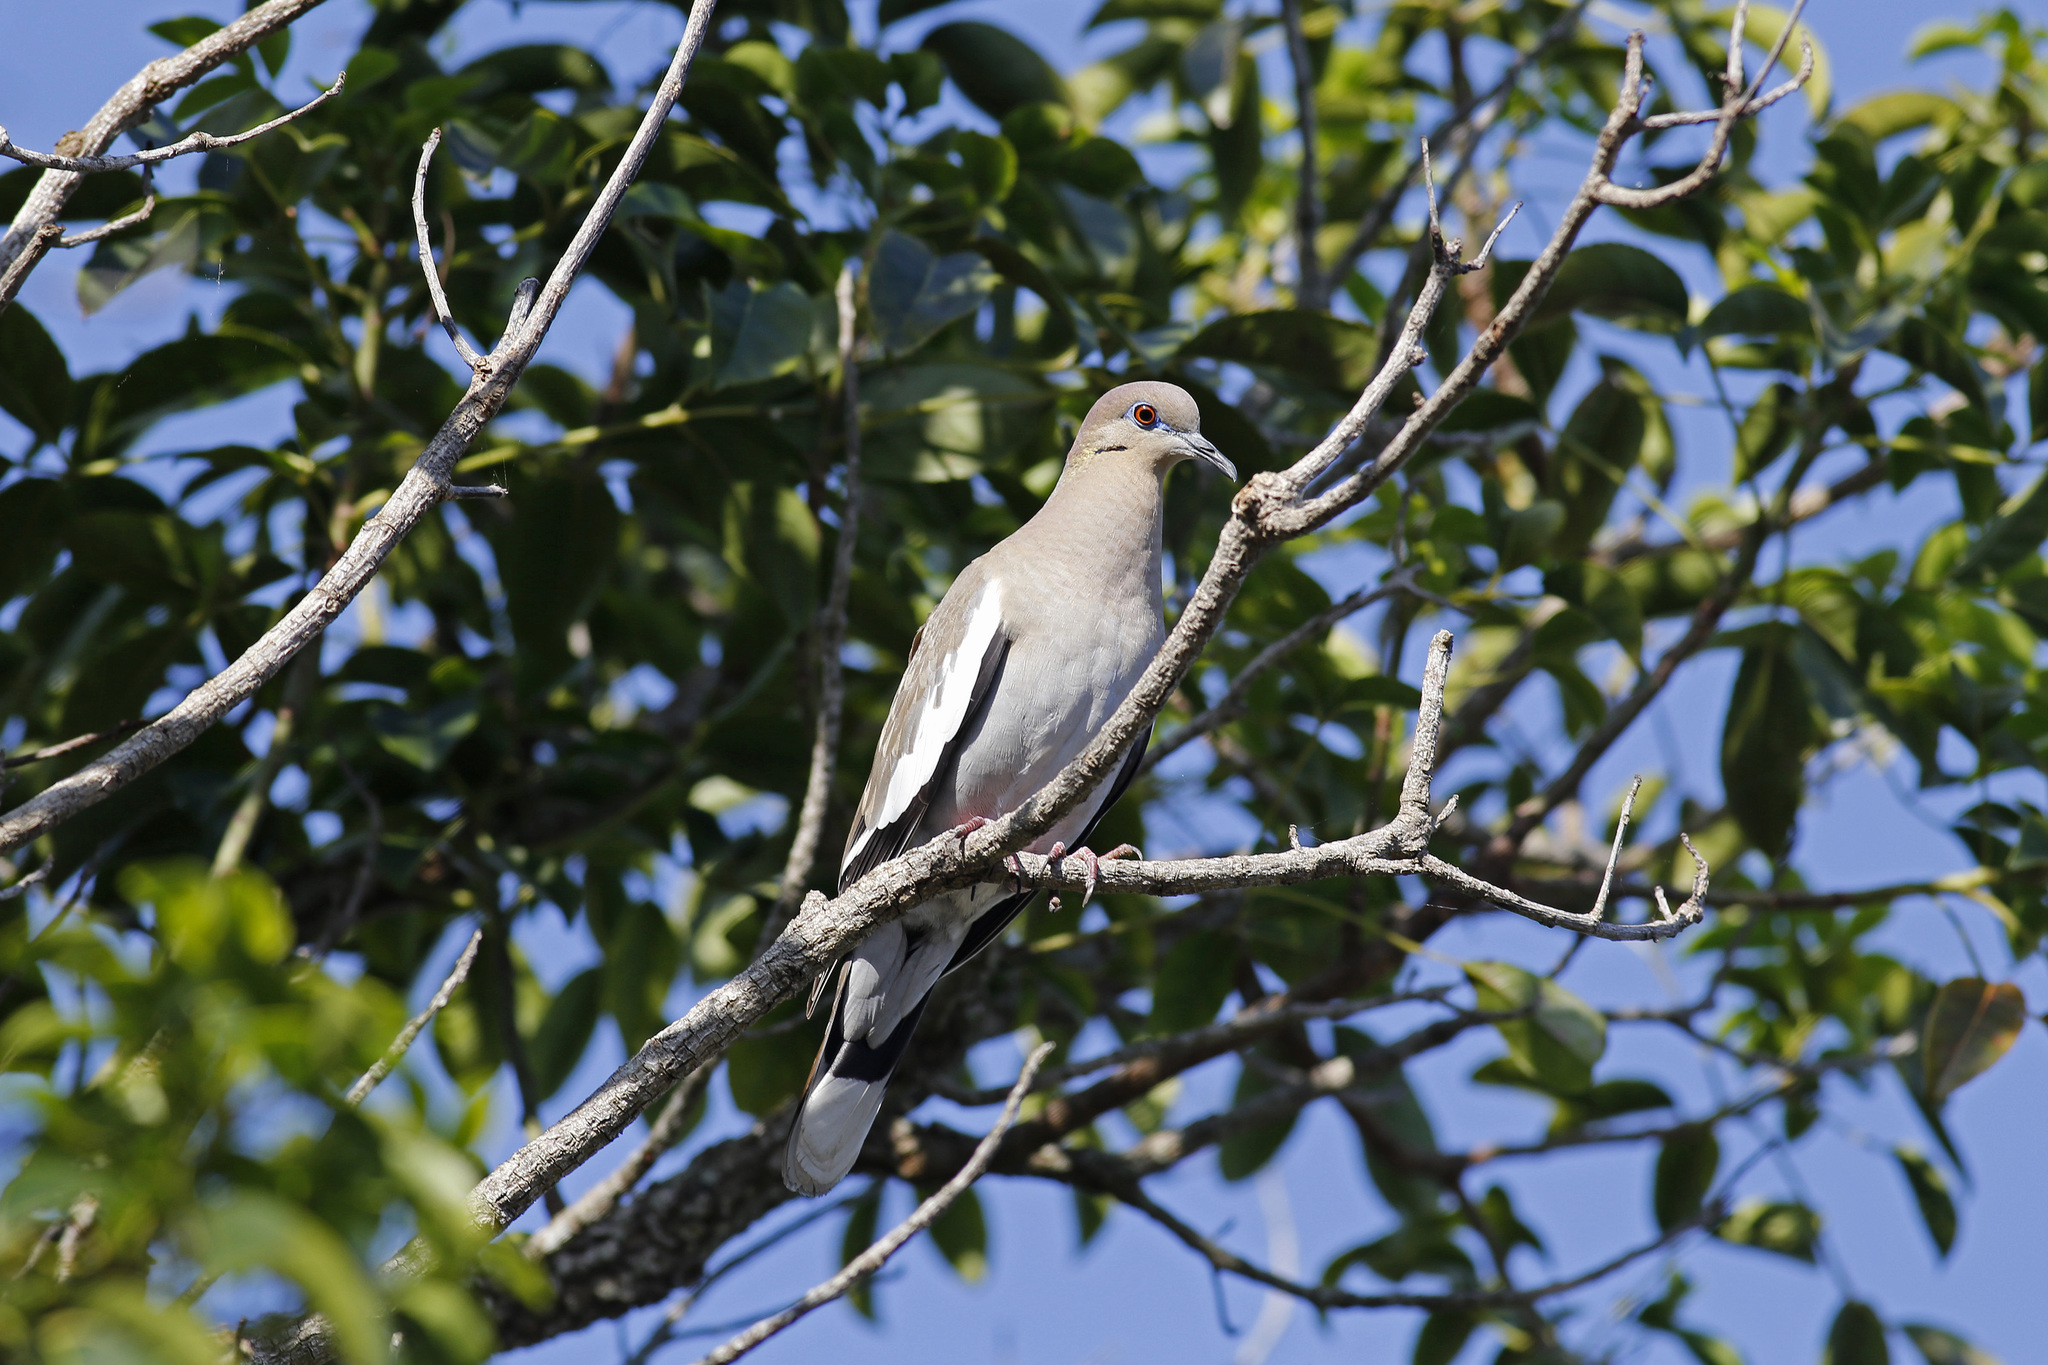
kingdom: Animalia
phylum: Chordata
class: Aves
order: Columbiformes
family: Columbidae
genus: Zenaida
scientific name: Zenaida asiatica
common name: White-winged dove
